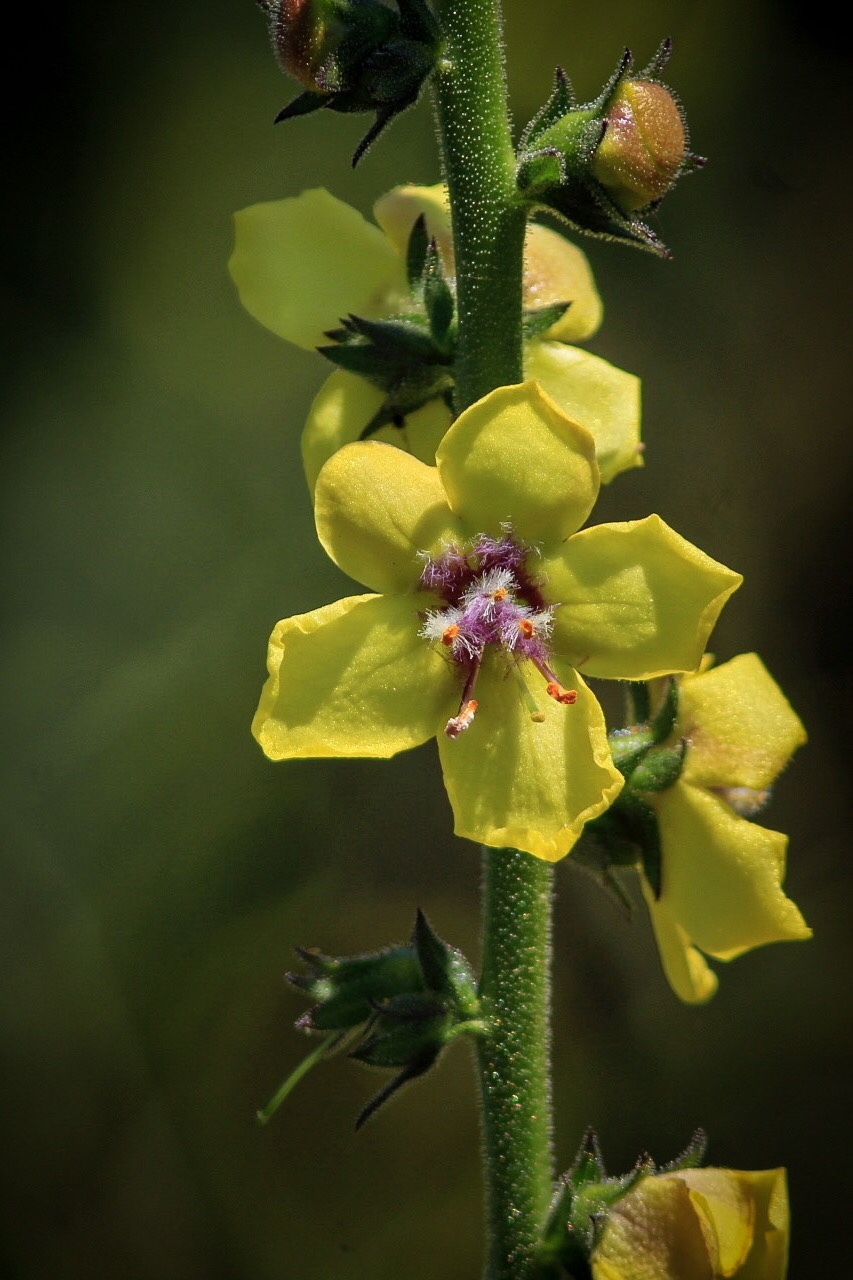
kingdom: Plantae
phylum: Tracheophyta
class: Magnoliopsida
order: Lamiales
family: Scrophulariaceae
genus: Verbascum
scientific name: Verbascum virgatum
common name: Twiggy mullein
